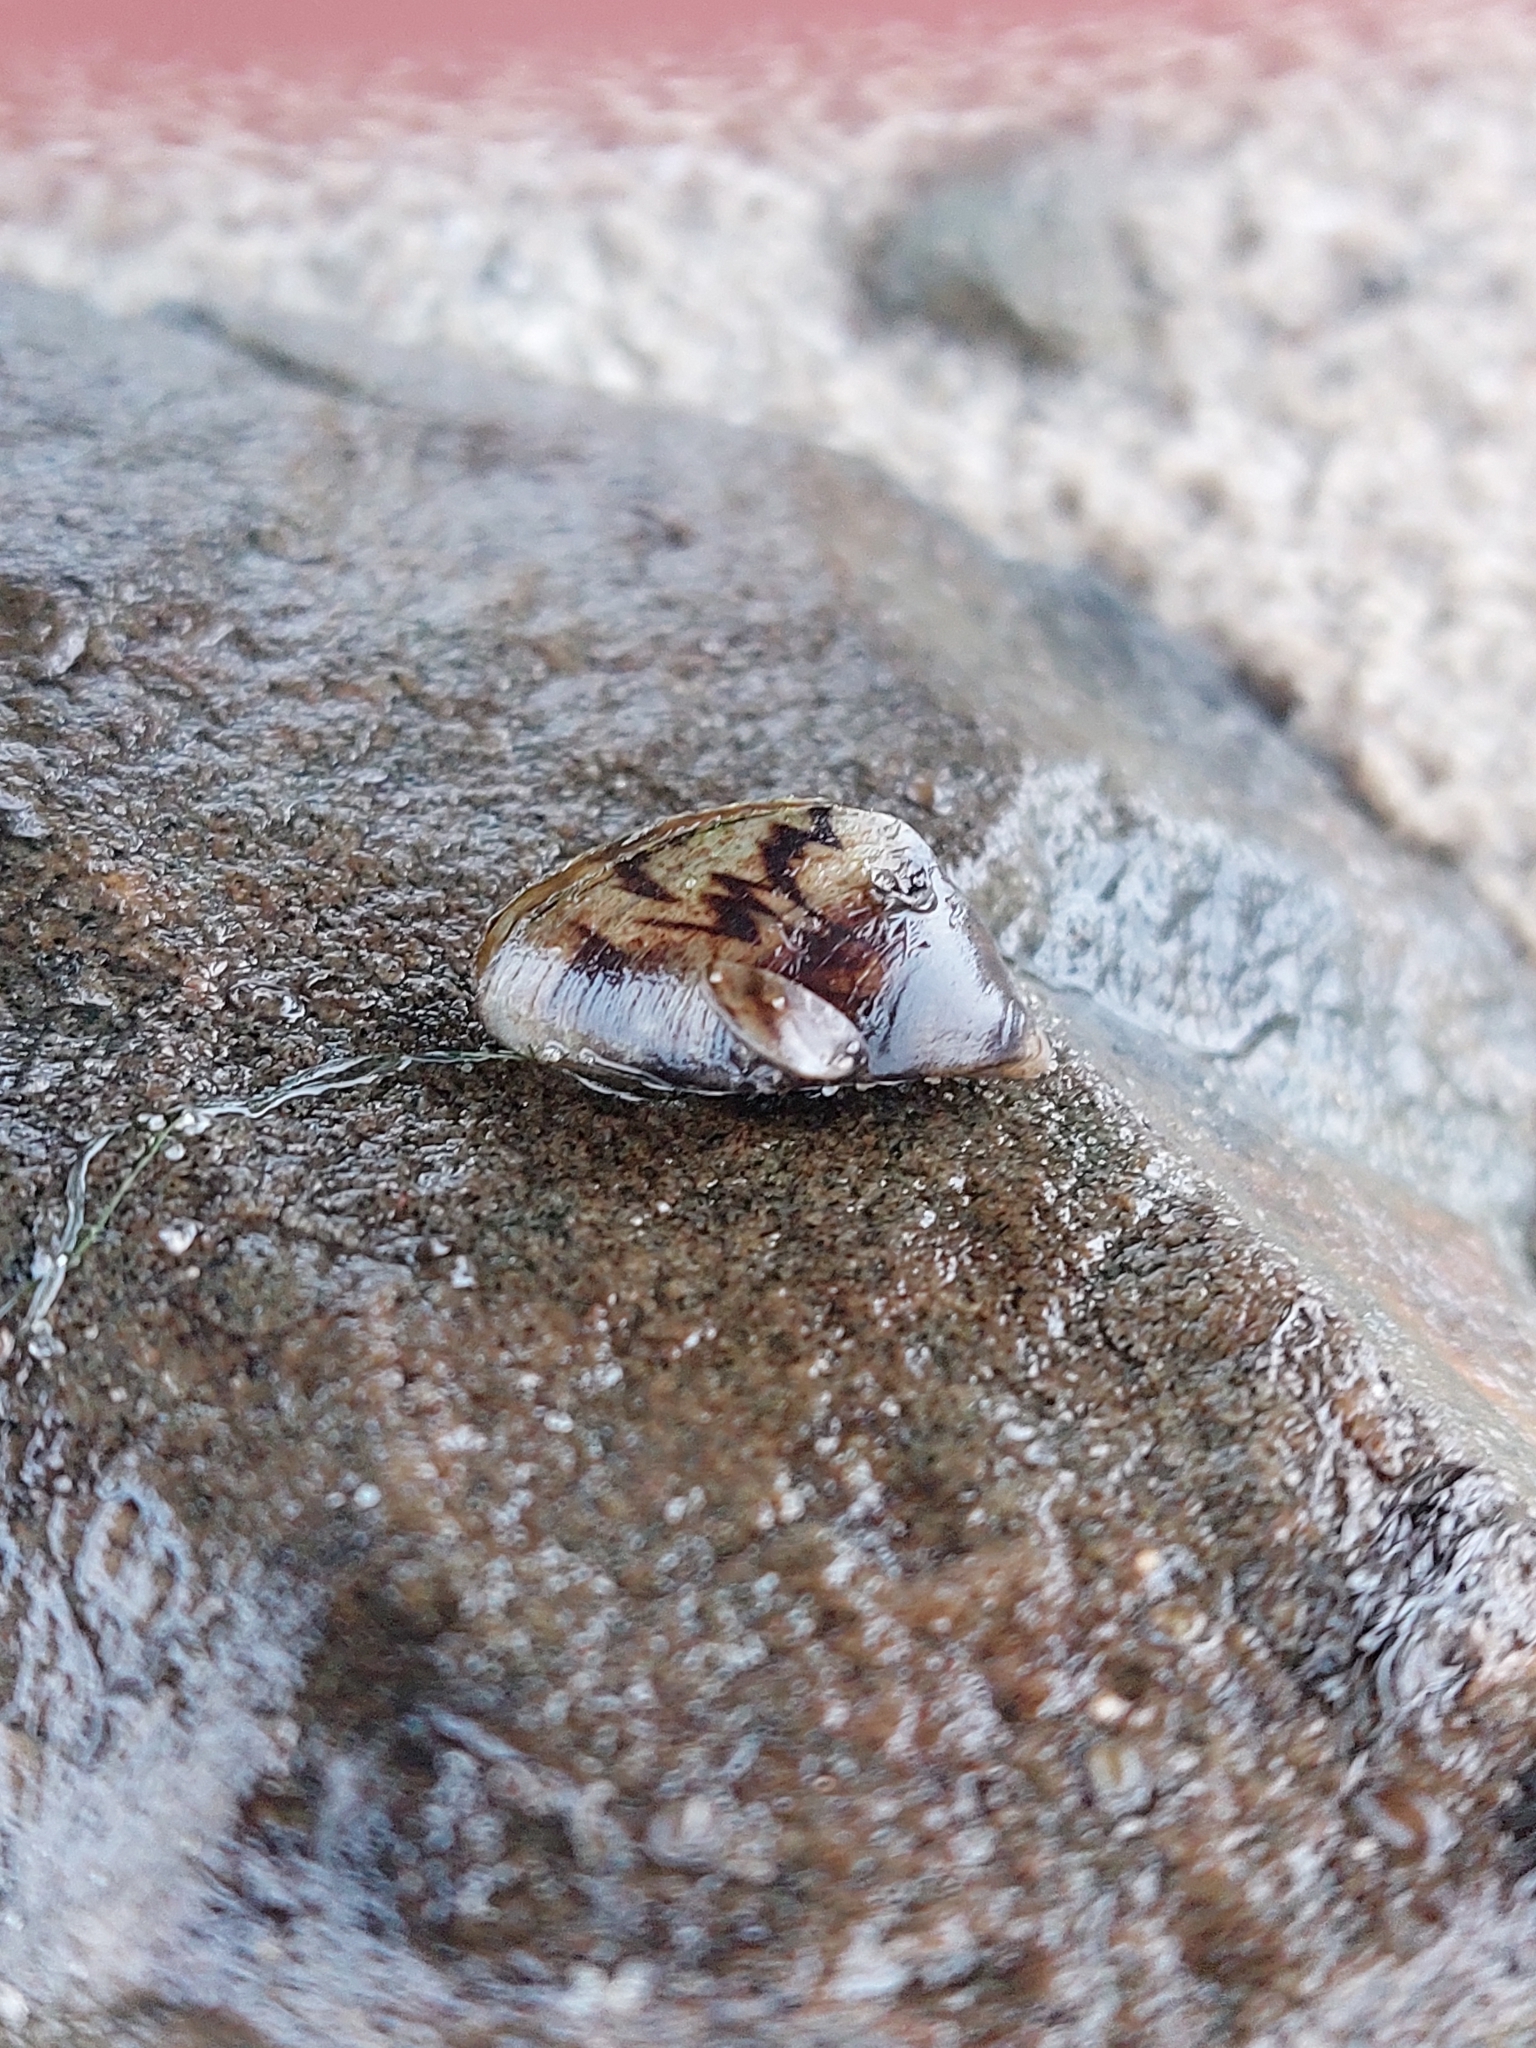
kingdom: Animalia
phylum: Mollusca
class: Bivalvia
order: Myida
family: Dreissenidae
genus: Dreissena
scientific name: Dreissena polymorpha
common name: Zebra mussel
